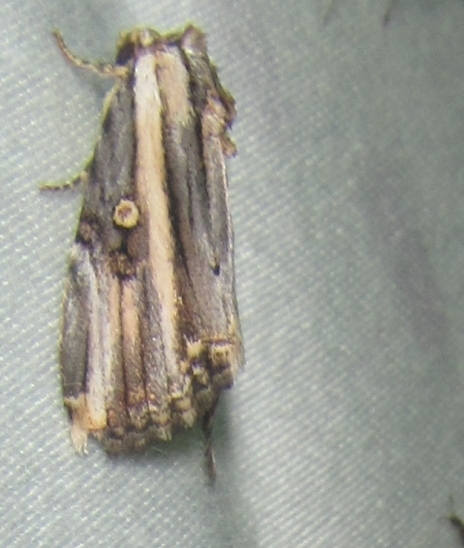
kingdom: Animalia
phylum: Arthropoda
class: Insecta
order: Lepidoptera
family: Noctuidae
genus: Anedhella
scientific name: Anedhella rectiradiata
